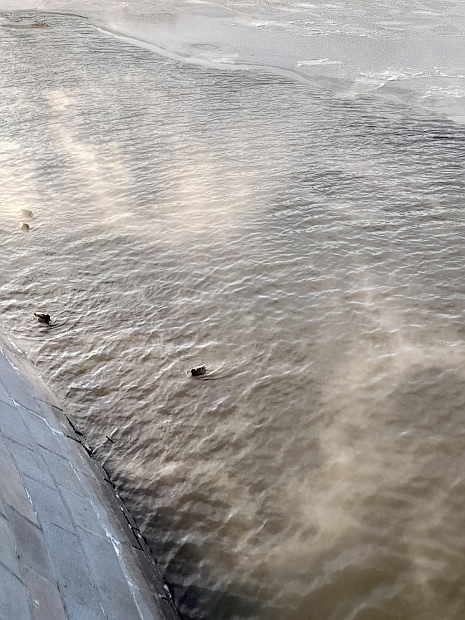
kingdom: Animalia
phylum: Chordata
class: Aves
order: Anseriformes
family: Anatidae
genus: Anas
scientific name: Anas platyrhynchos
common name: Mallard
